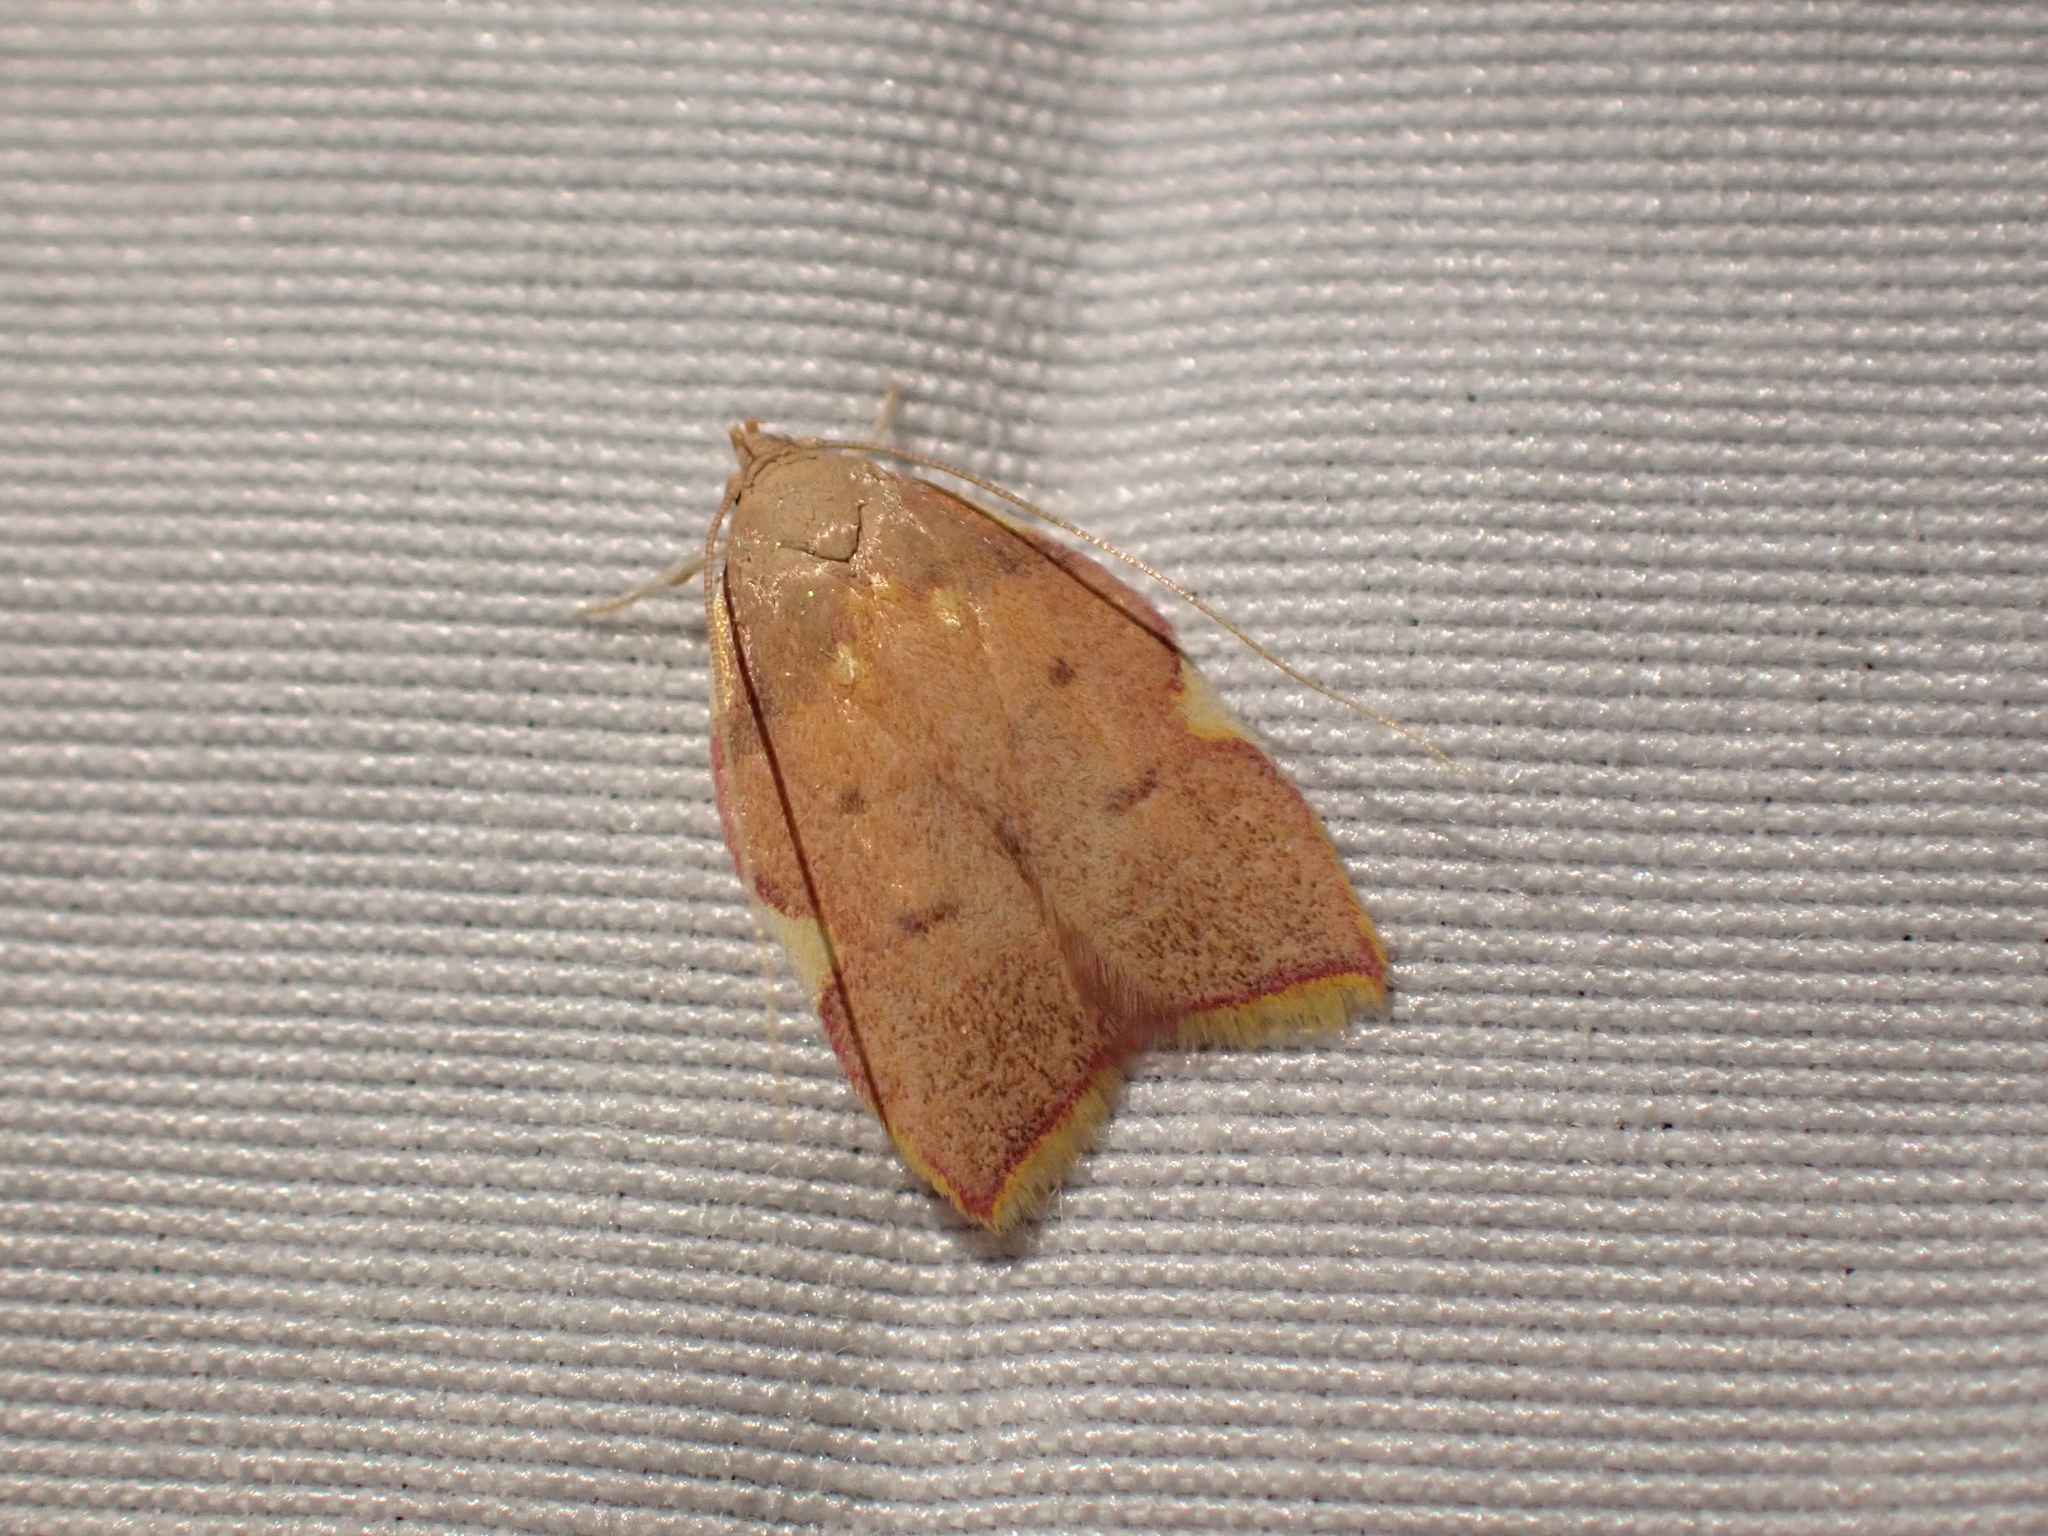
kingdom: Animalia
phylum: Arthropoda
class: Insecta
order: Lepidoptera
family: Peleopodidae
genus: Carcina
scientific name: Carcina quercana
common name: Moth
